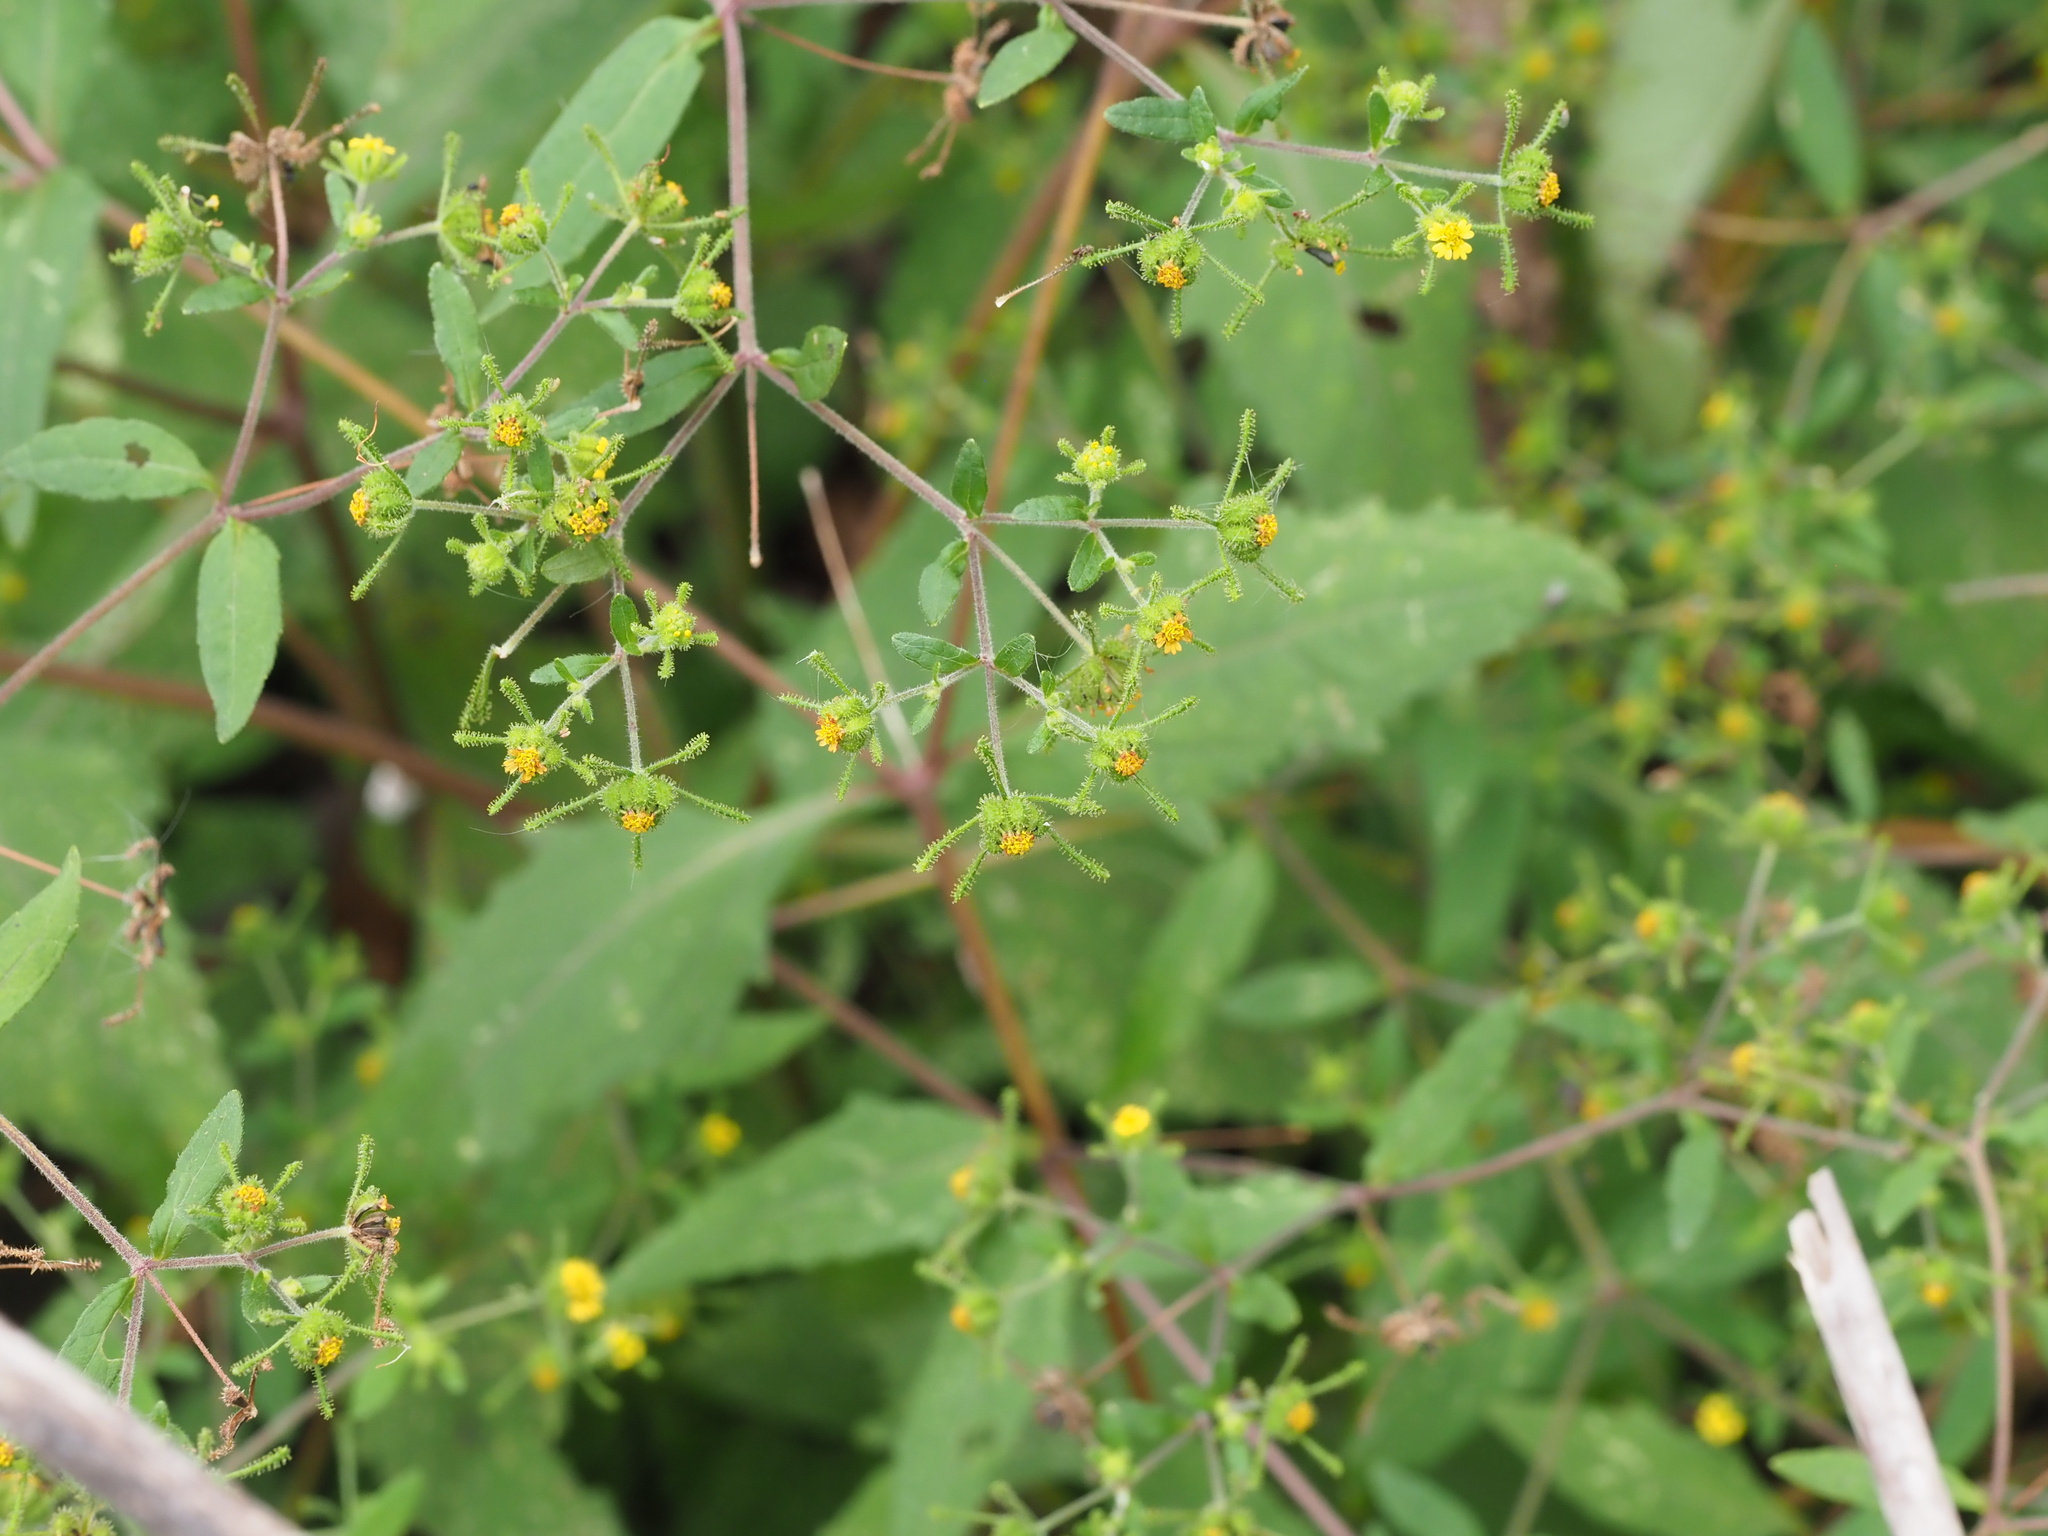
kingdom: Plantae
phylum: Tracheophyta
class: Magnoliopsida
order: Asterales
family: Asteraceae
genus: Sigesbeckia
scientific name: Sigesbeckia orientalis
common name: Eastern st paul's-wort
